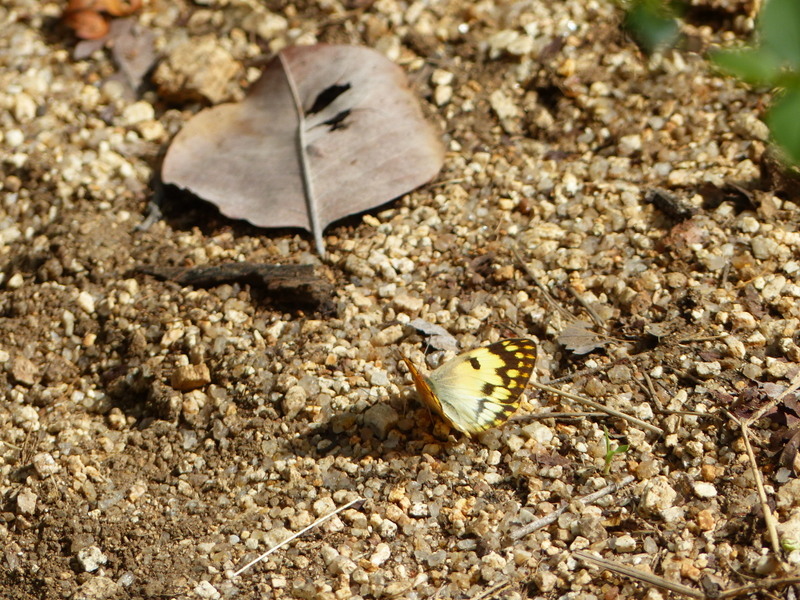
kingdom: Animalia
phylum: Arthropoda
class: Insecta
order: Lepidoptera
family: Pieridae
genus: Colotis
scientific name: Colotis vesta
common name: Veined golden arab
